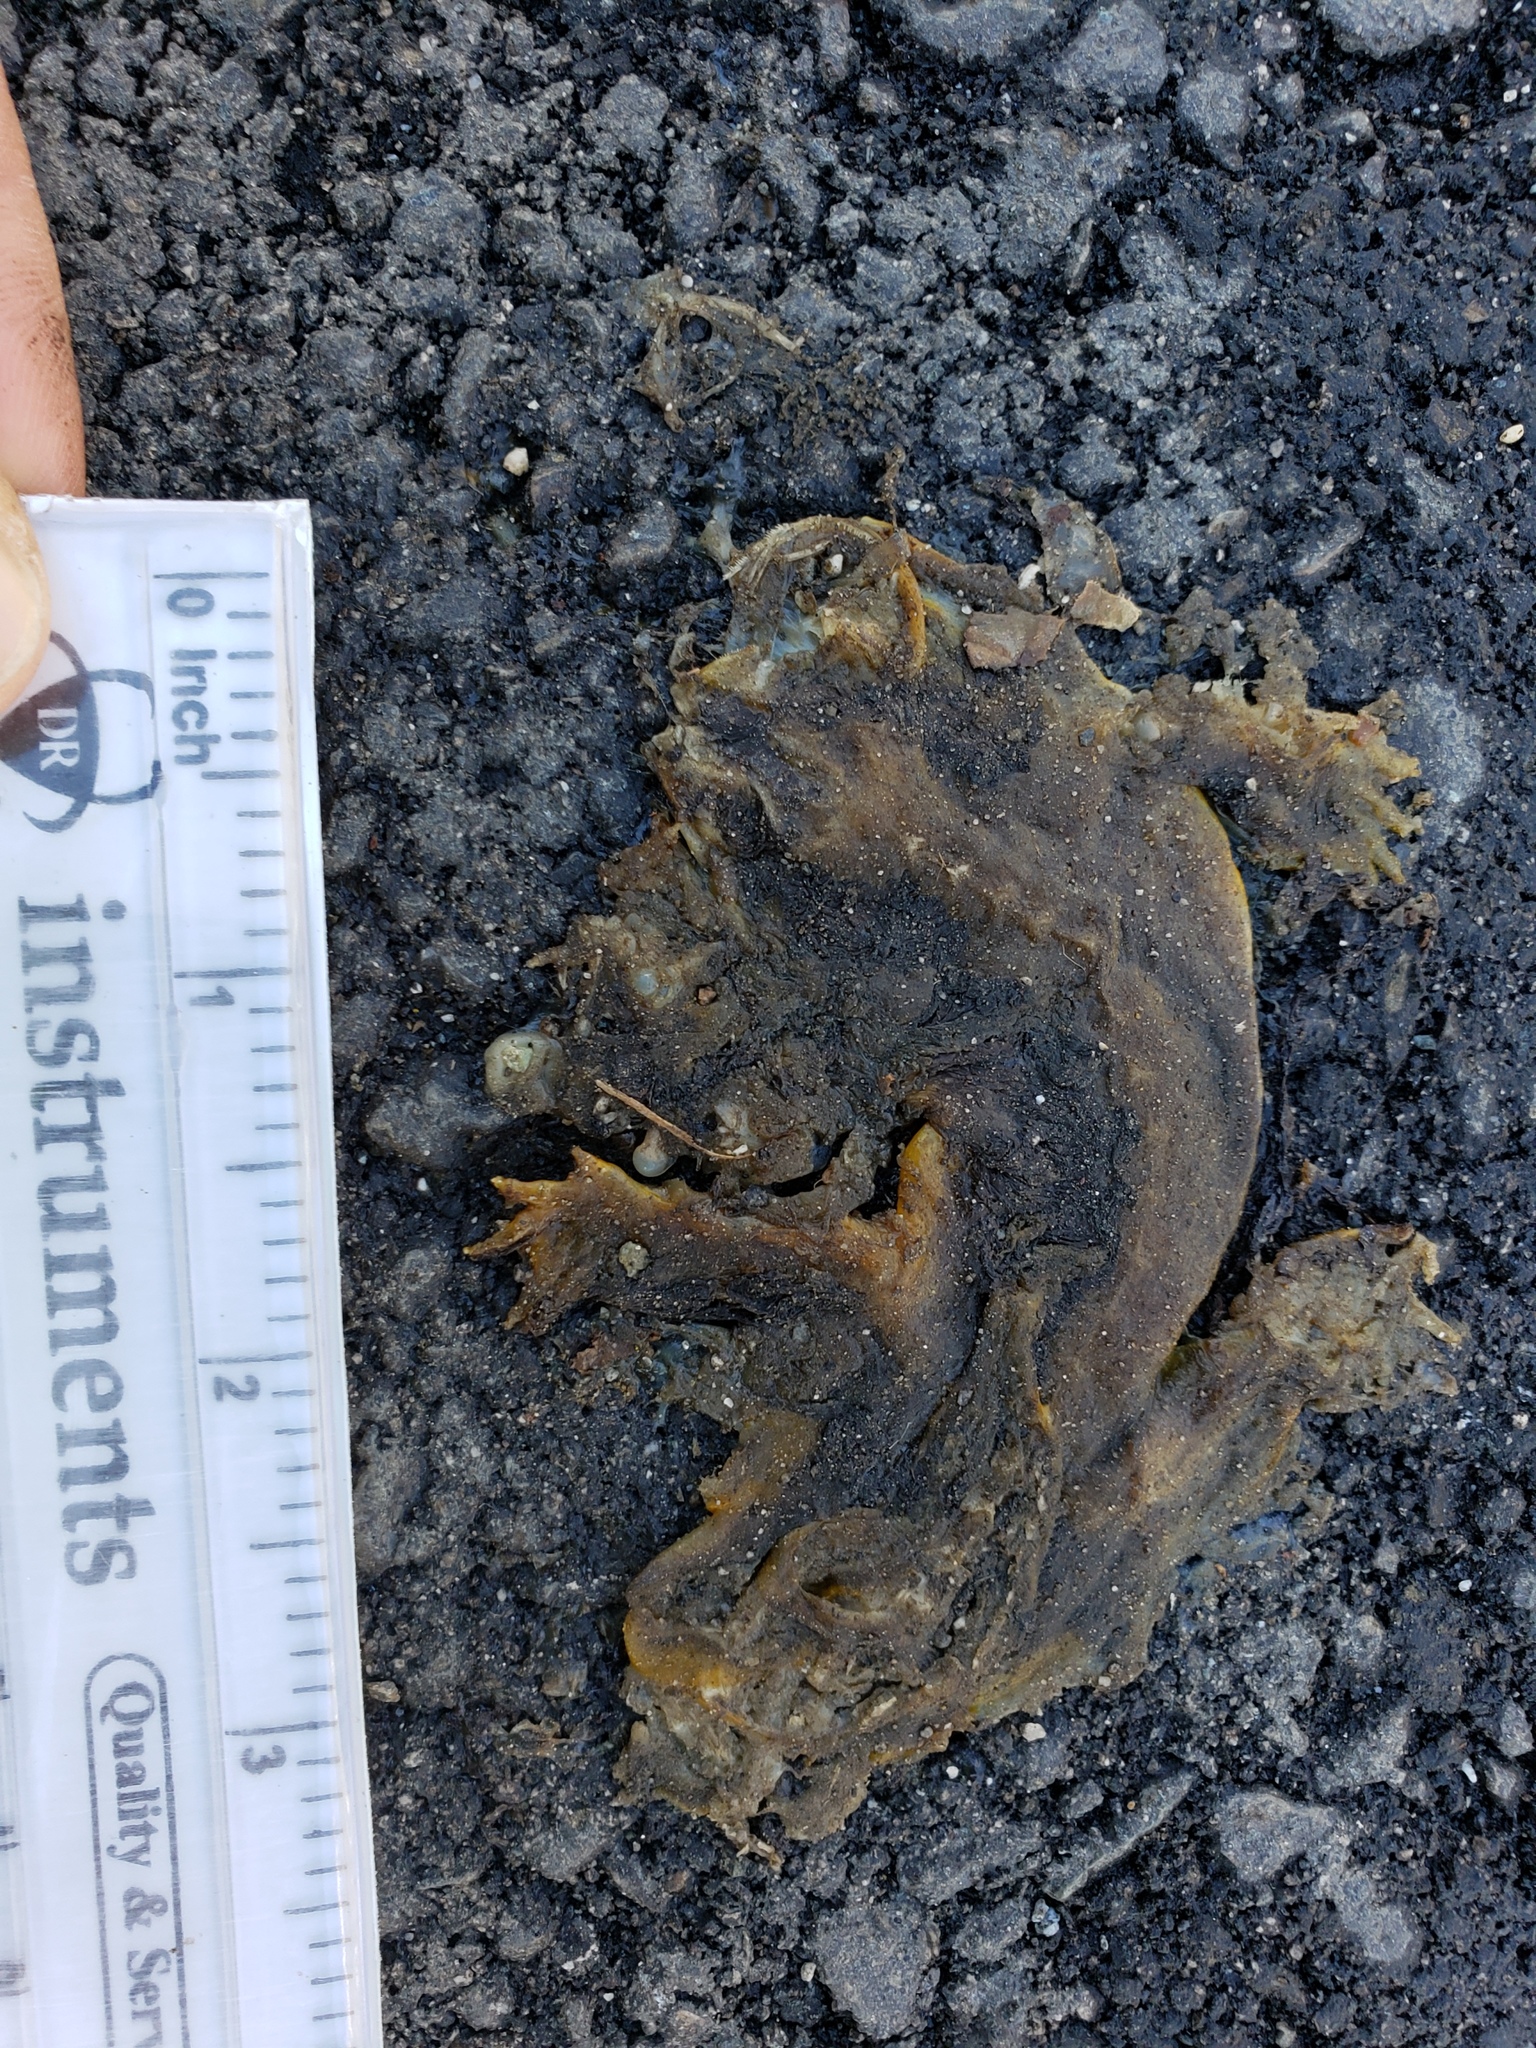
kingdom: Animalia
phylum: Chordata
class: Amphibia
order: Caudata
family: Salamandridae
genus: Taricha
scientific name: Taricha
